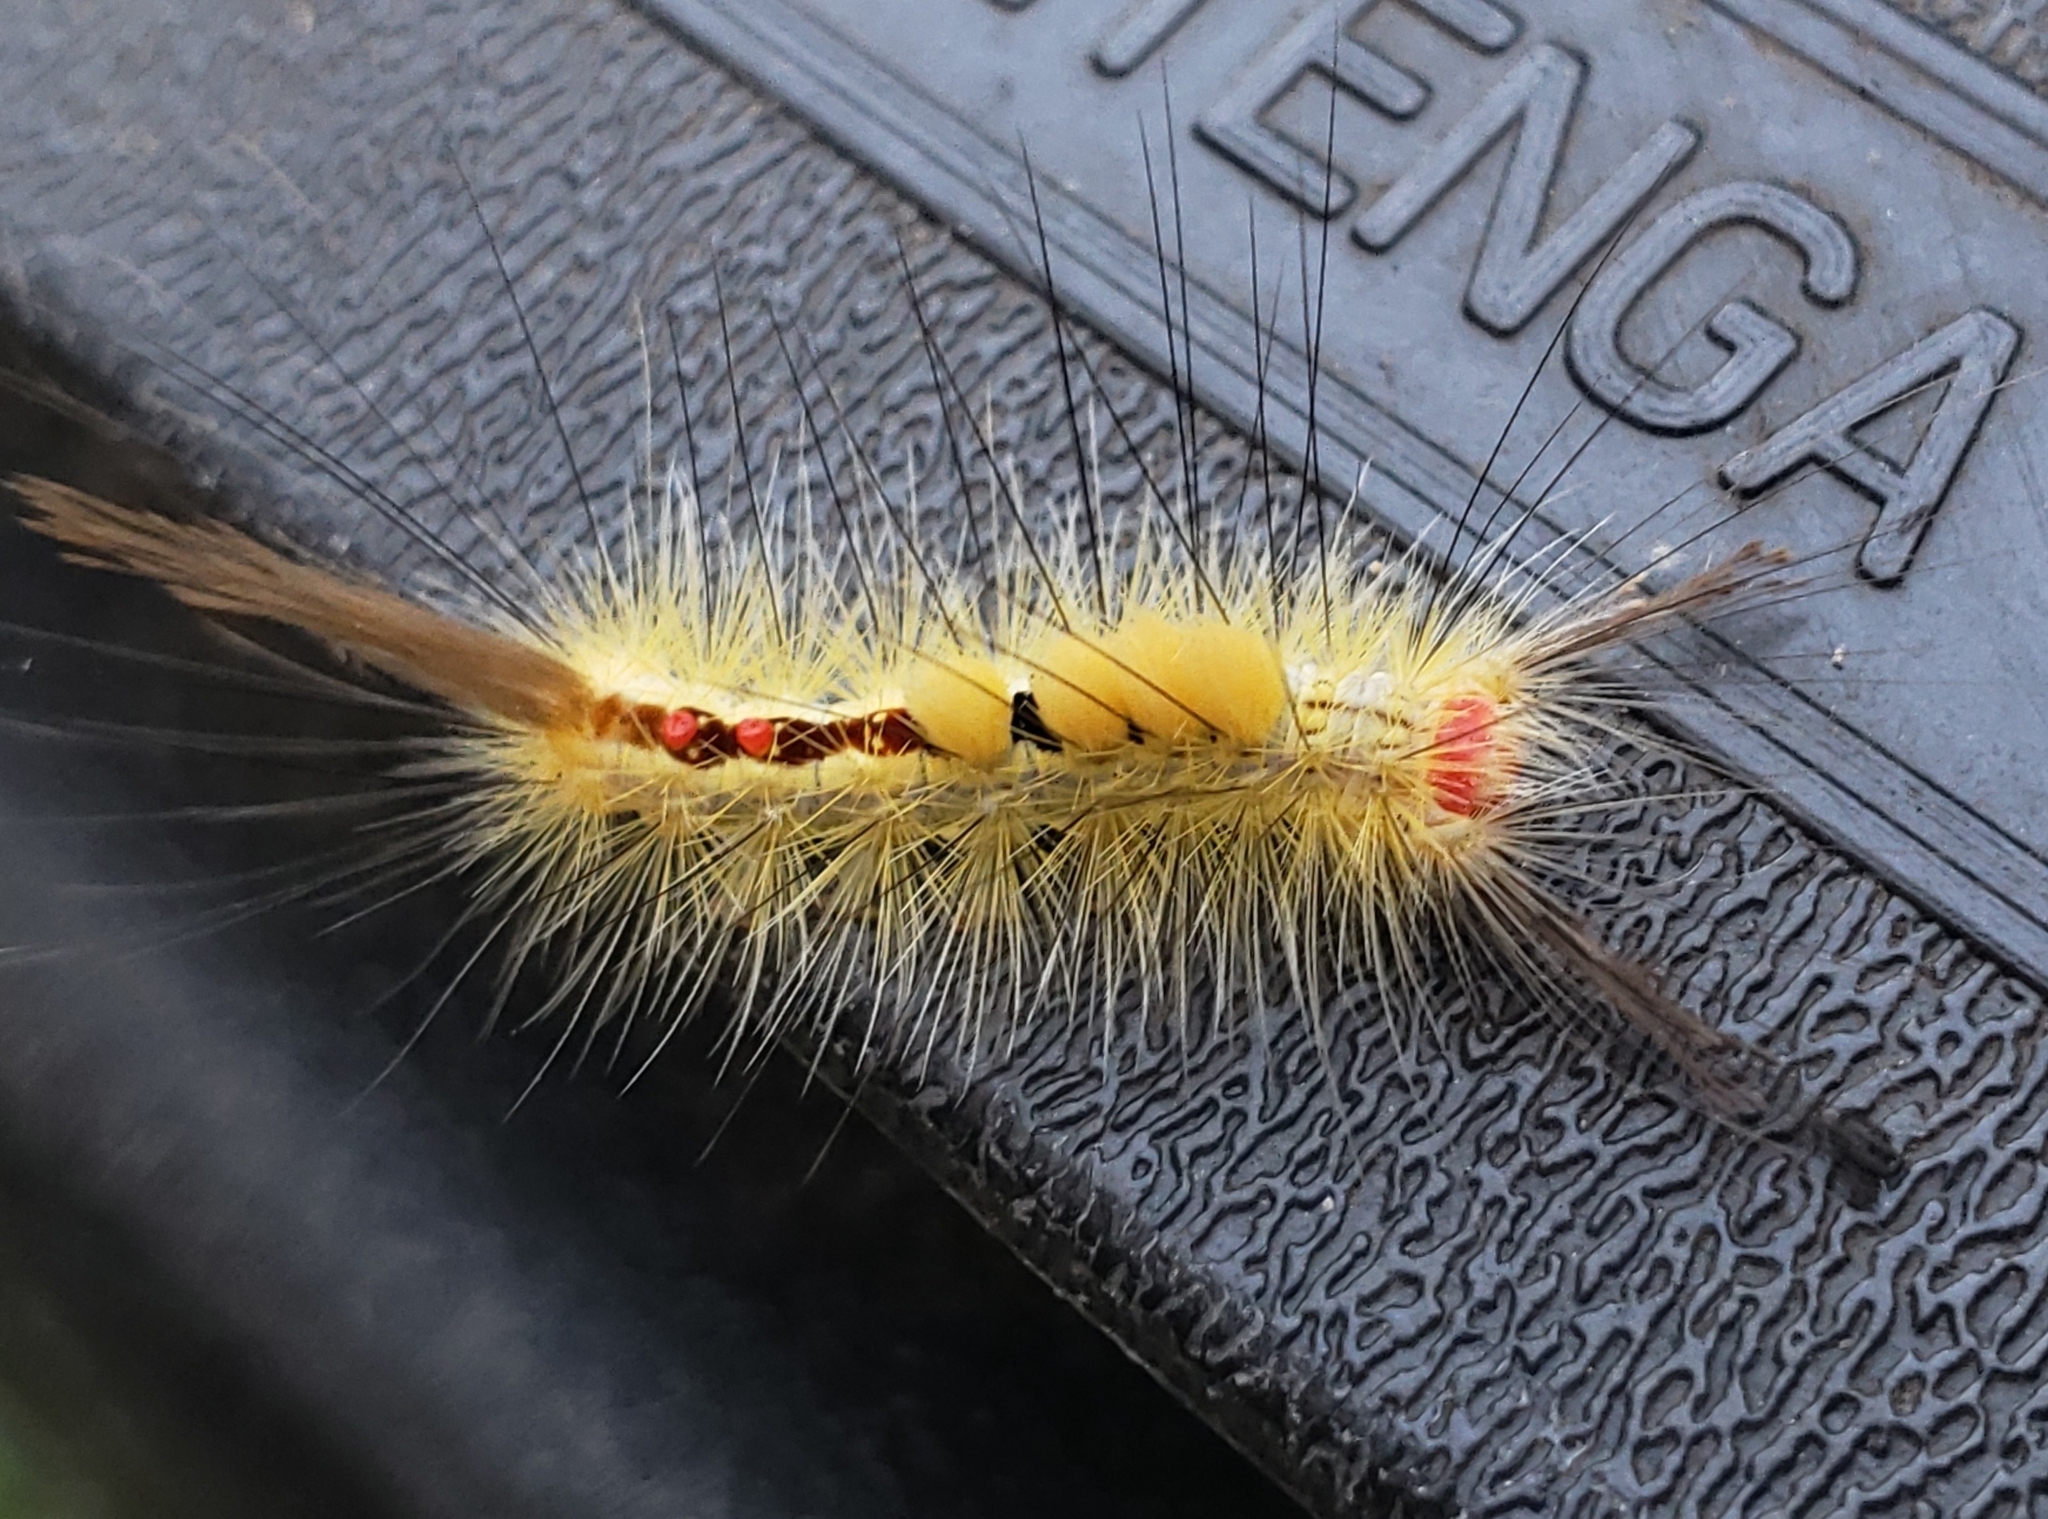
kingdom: Animalia
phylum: Arthropoda
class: Insecta
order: Lepidoptera
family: Erebidae
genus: Orgyia
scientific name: Orgyia leucostigma
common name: White-marked tussock moth
